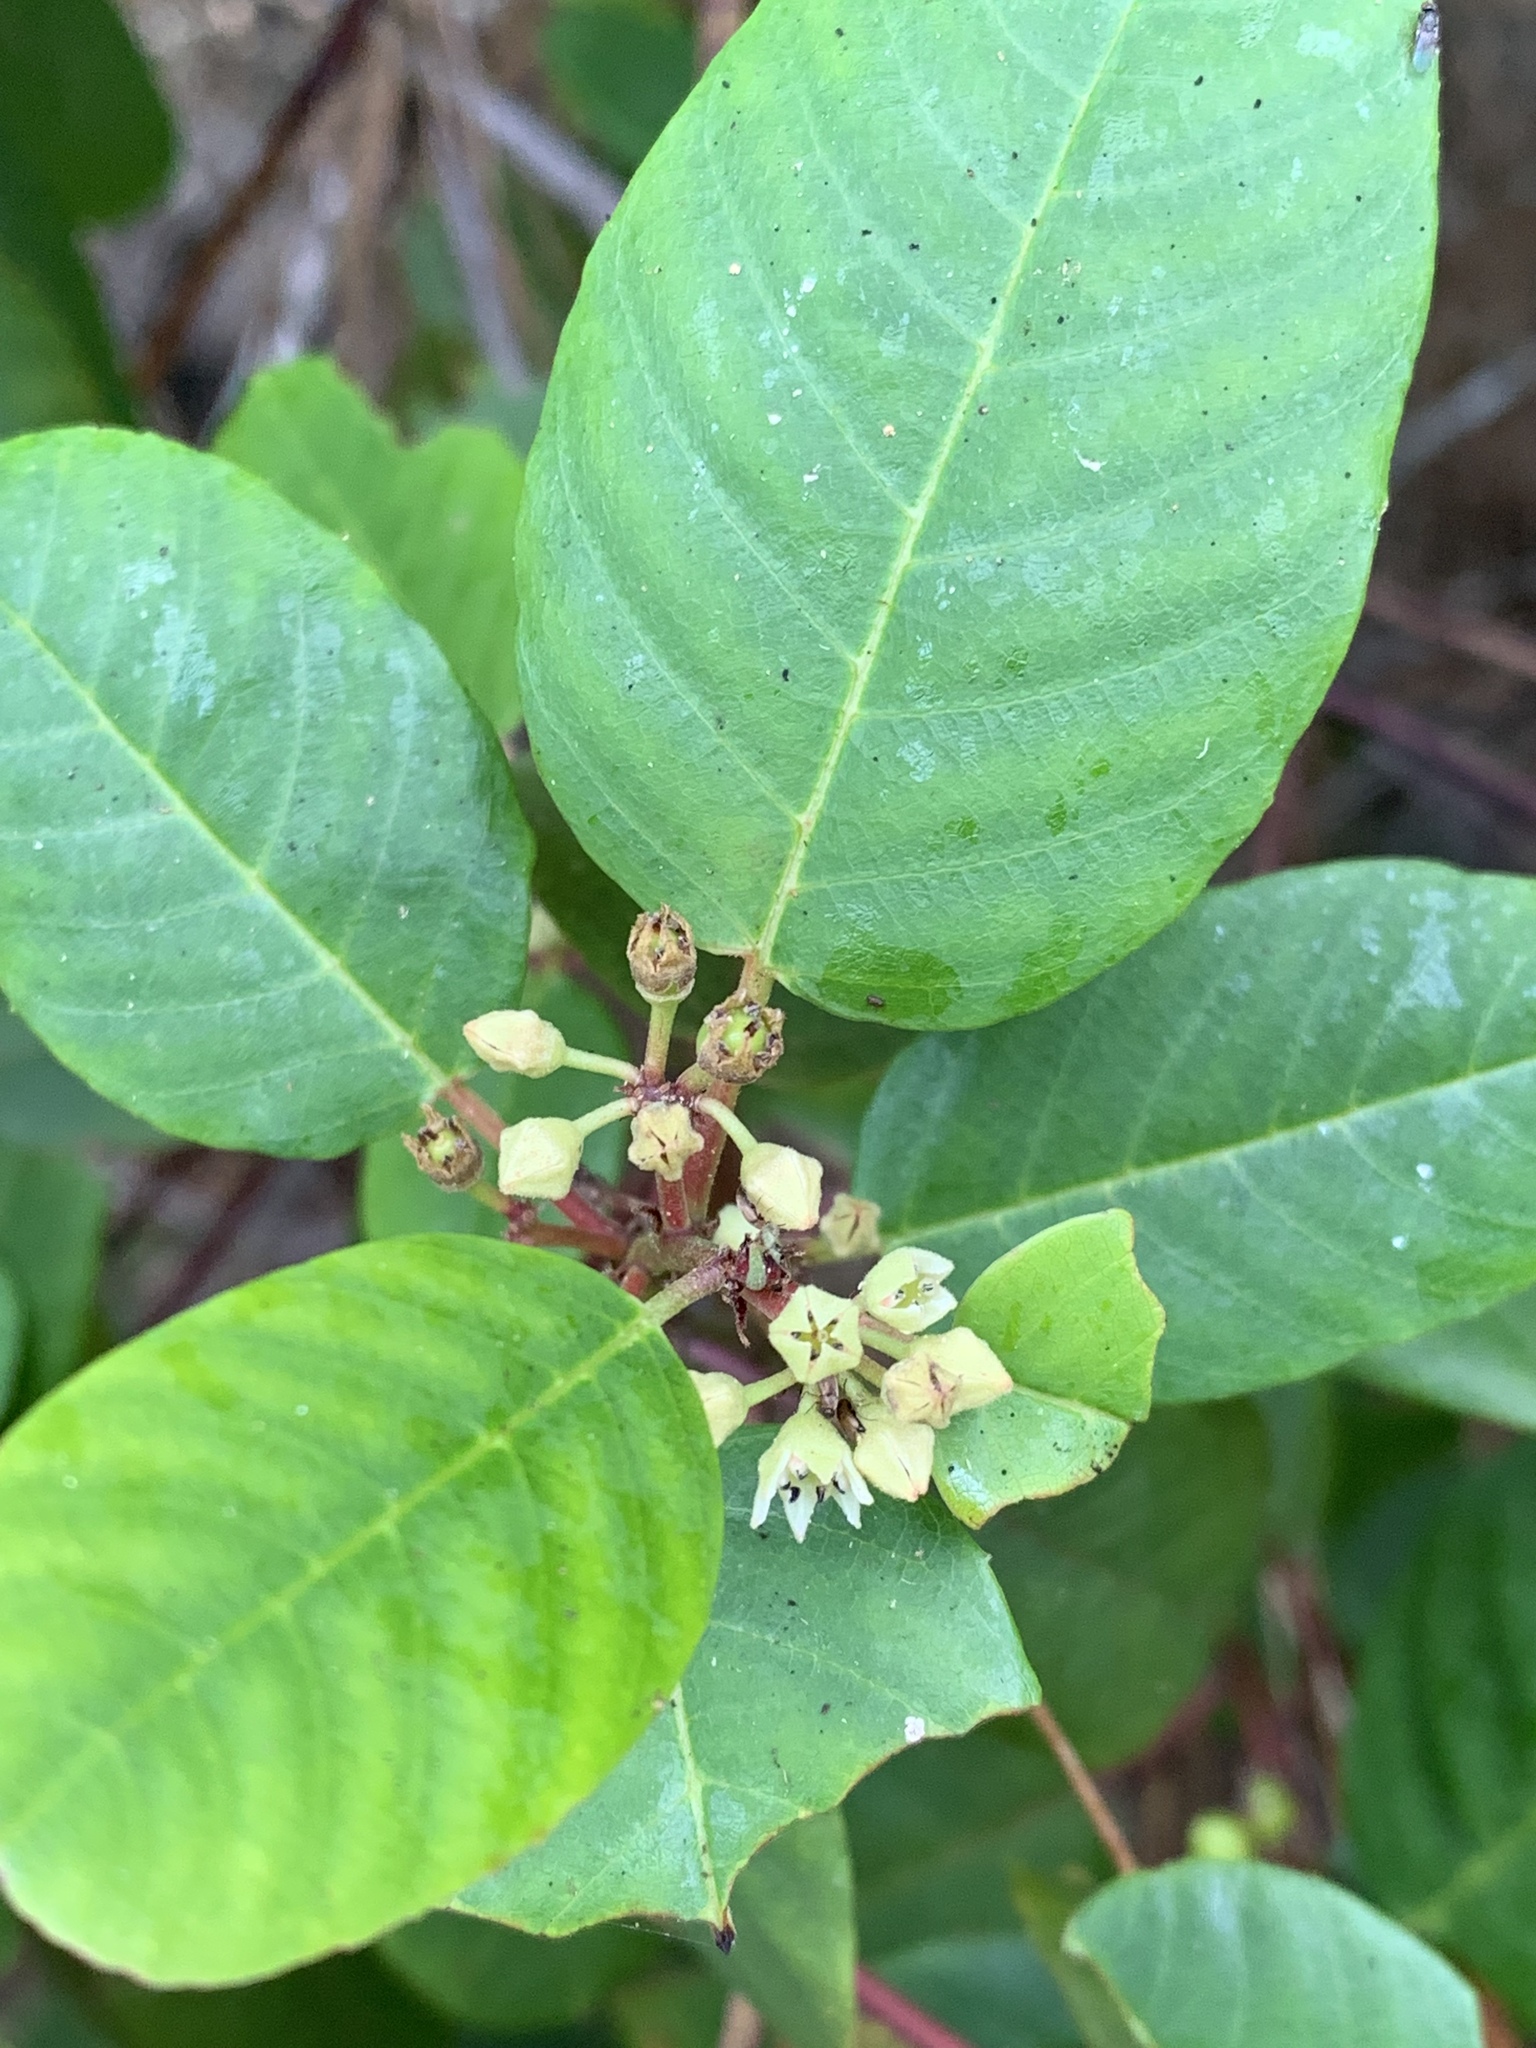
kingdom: Plantae
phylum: Tracheophyta
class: Magnoliopsida
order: Rosales
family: Rhamnaceae
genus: Frangula
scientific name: Frangula californica
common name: California buckthorn
